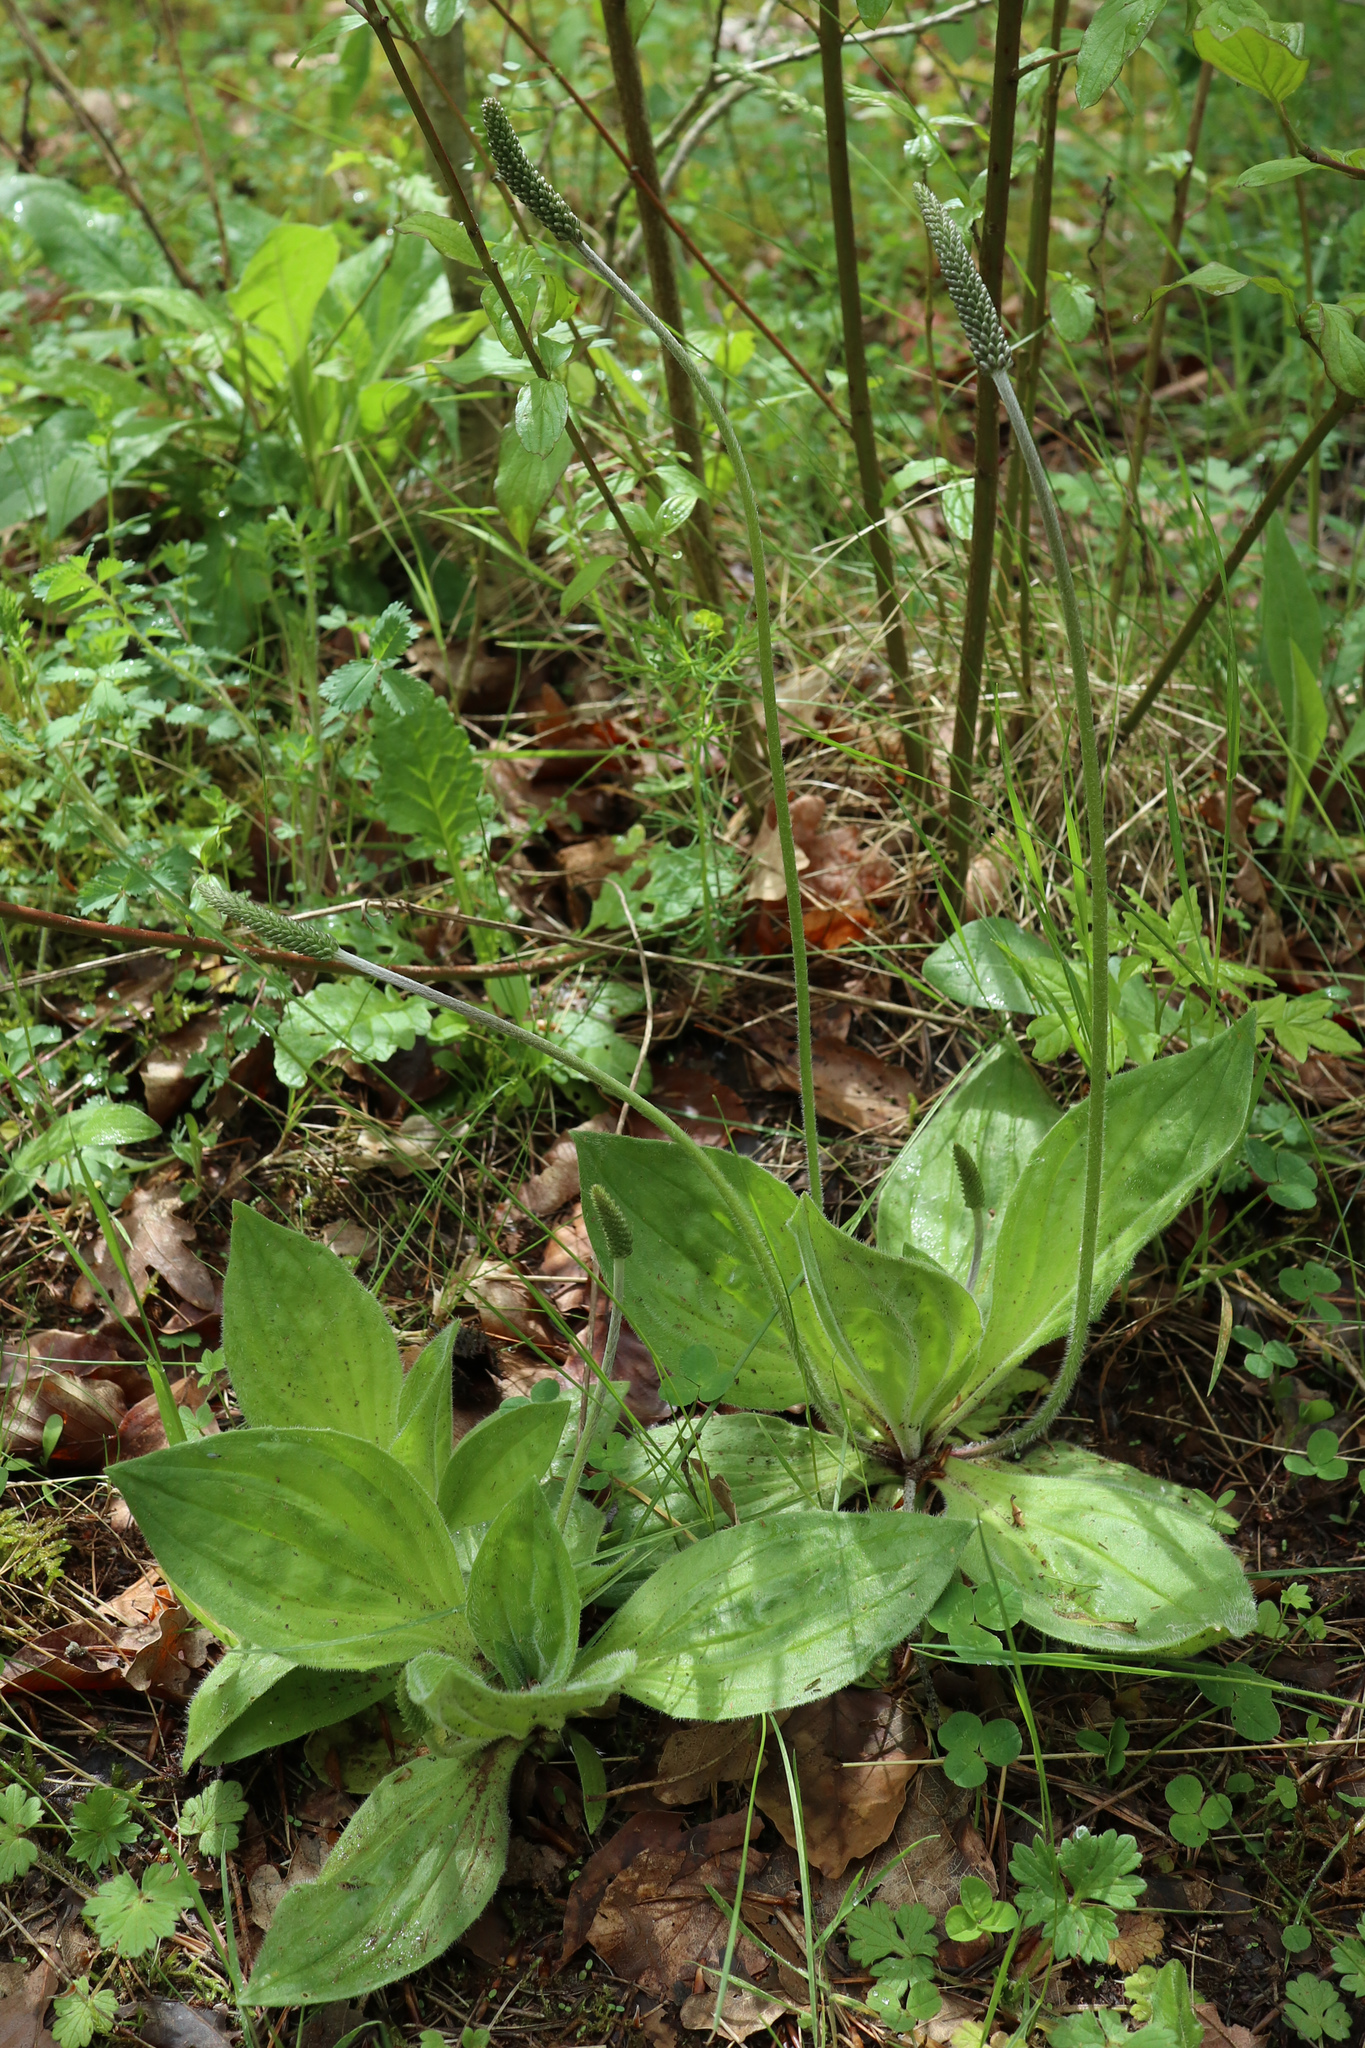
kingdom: Plantae
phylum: Tracheophyta
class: Magnoliopsida
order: Lamiales
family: Plantaginaceae
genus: Plantago
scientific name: Plantago media
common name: Hoary plantain
